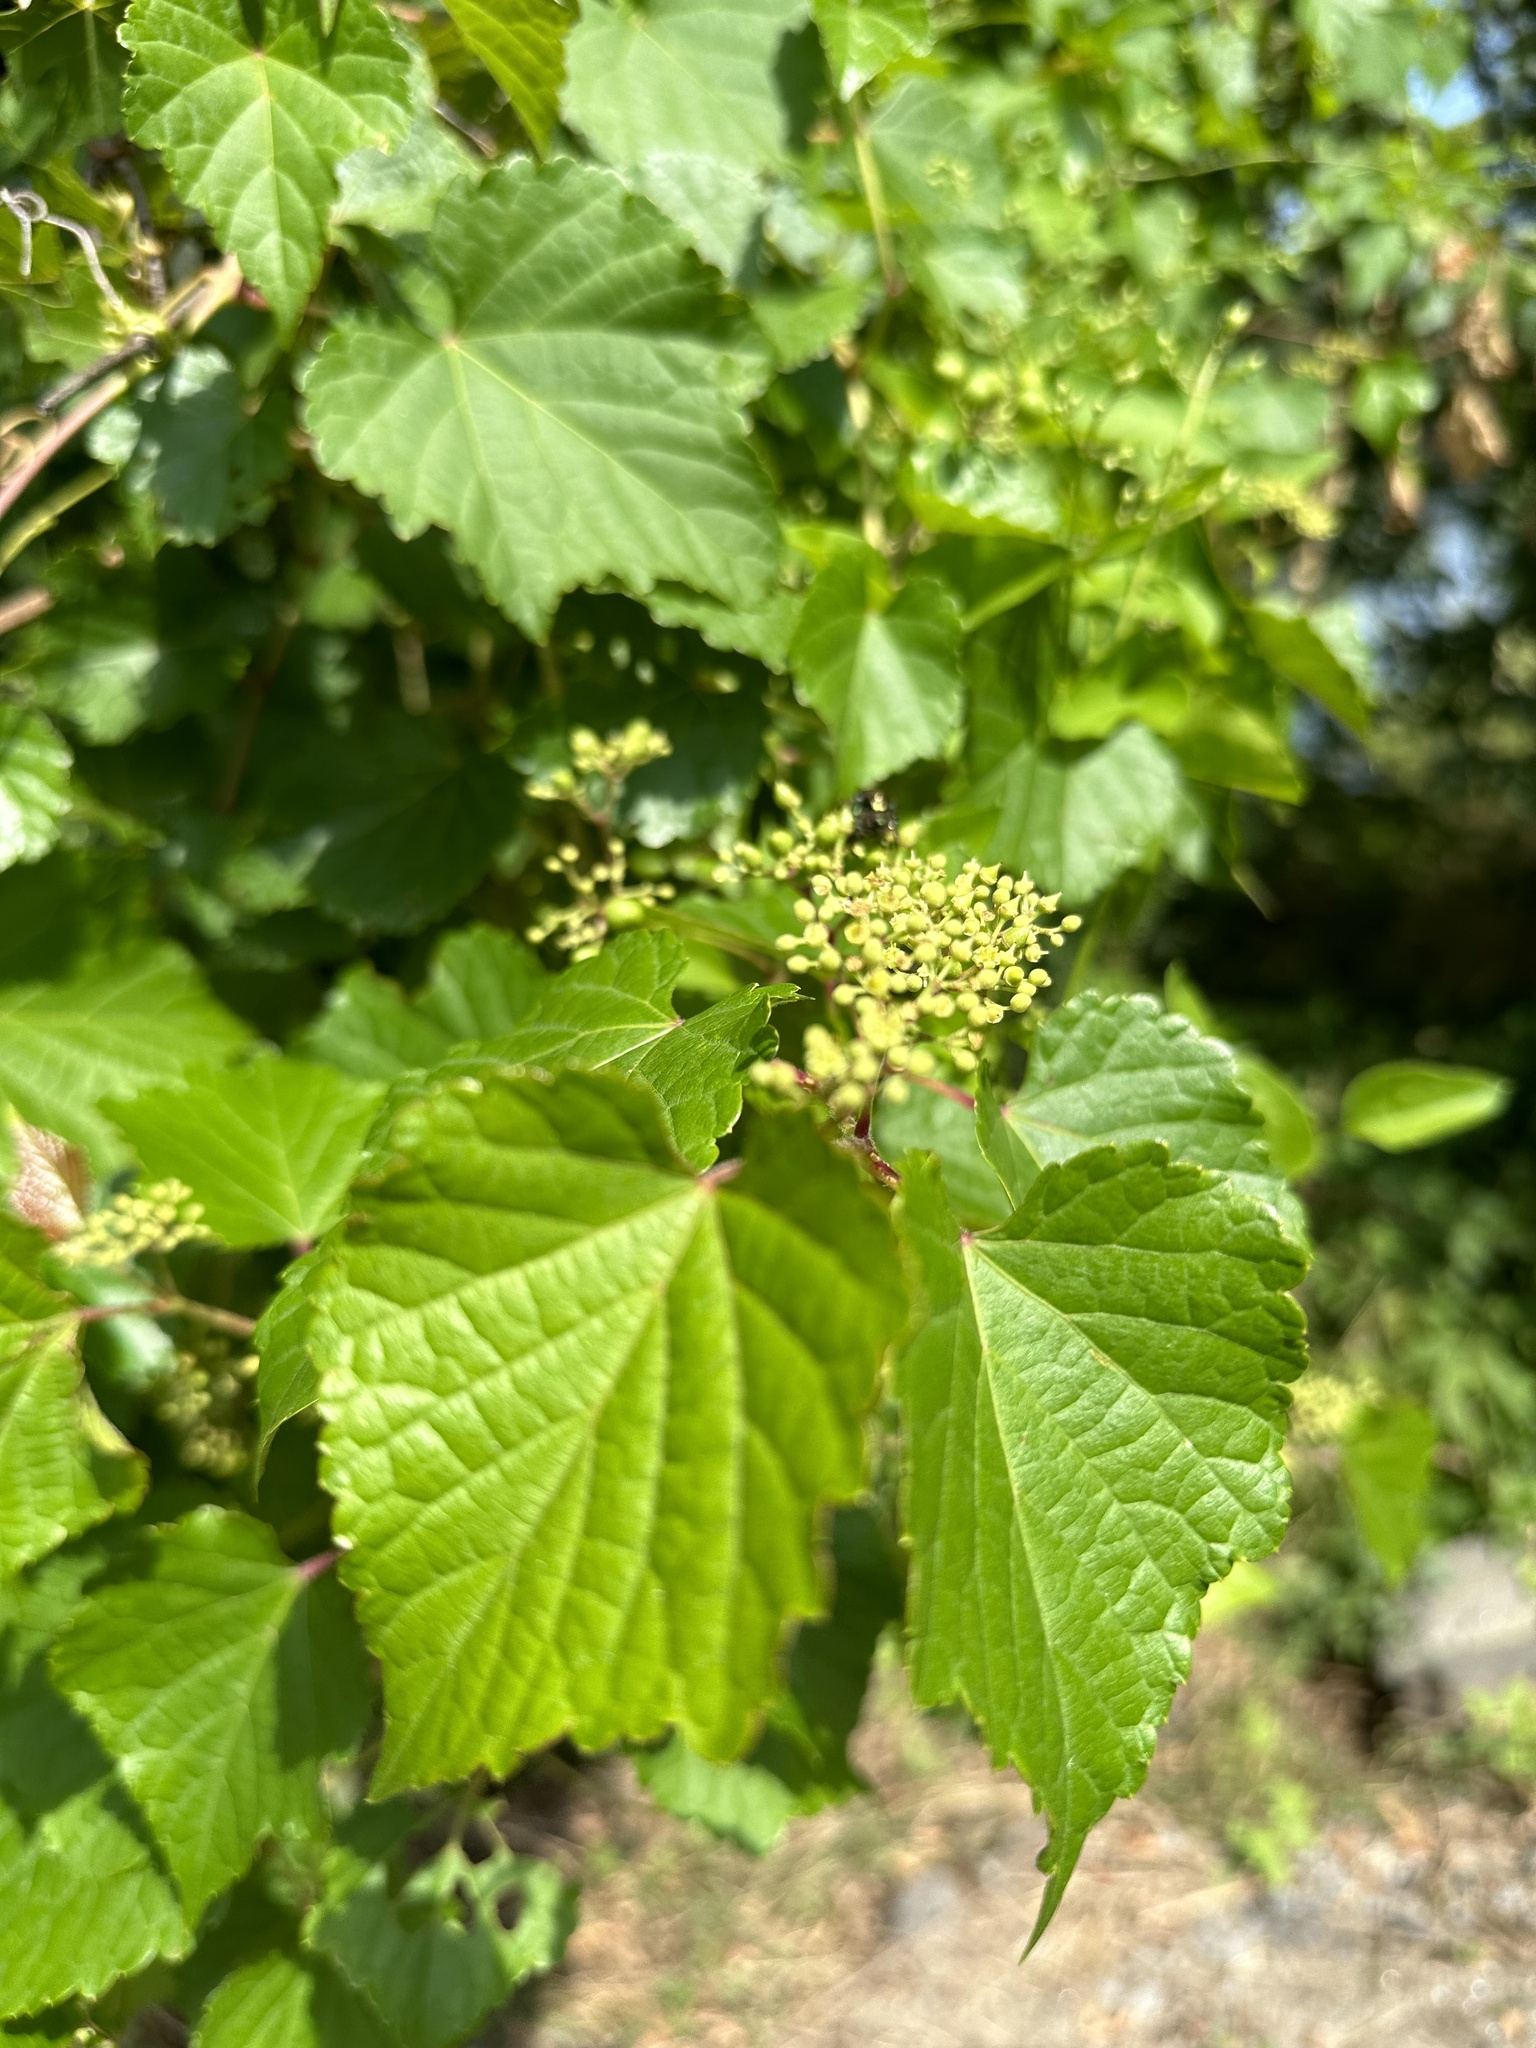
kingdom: Plantae
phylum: Tracheophyta
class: Magnoliopsida
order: Vitales
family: Vitaceae
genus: Ampelopsis
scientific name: Ampelopsis glandulosa
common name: Amur peppervine
